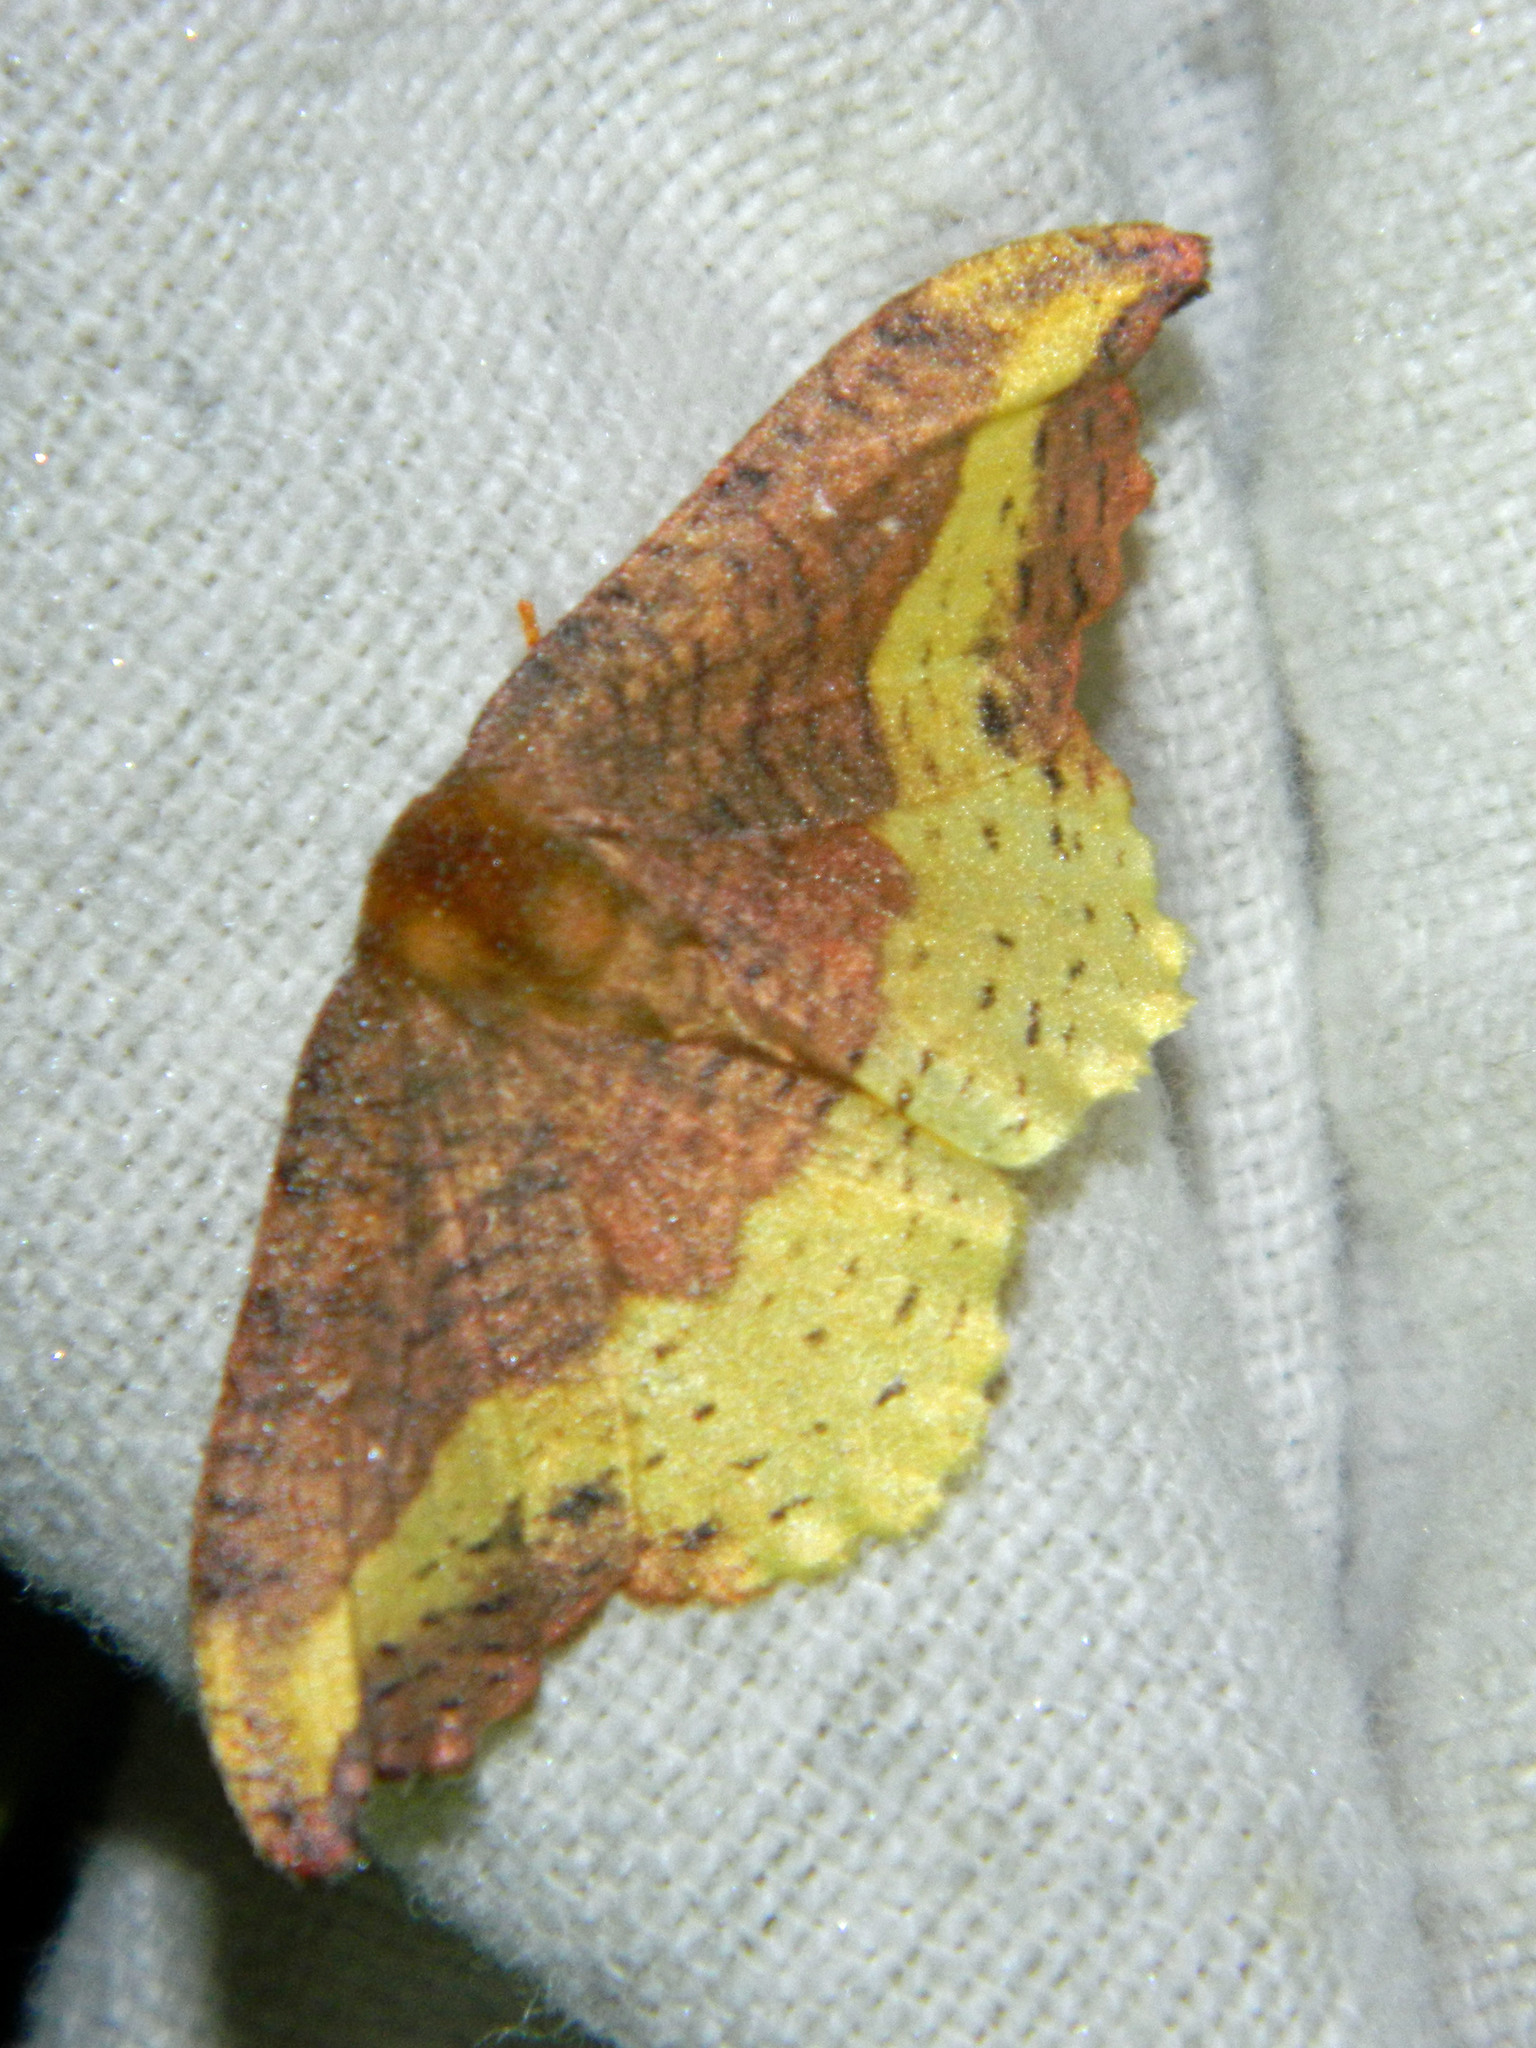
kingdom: Animalia
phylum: Arthropoda
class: Insecta
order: Lepidoptera
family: Drepanidae
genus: Oreta
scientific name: Oreta rosea
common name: Rose hooktip
